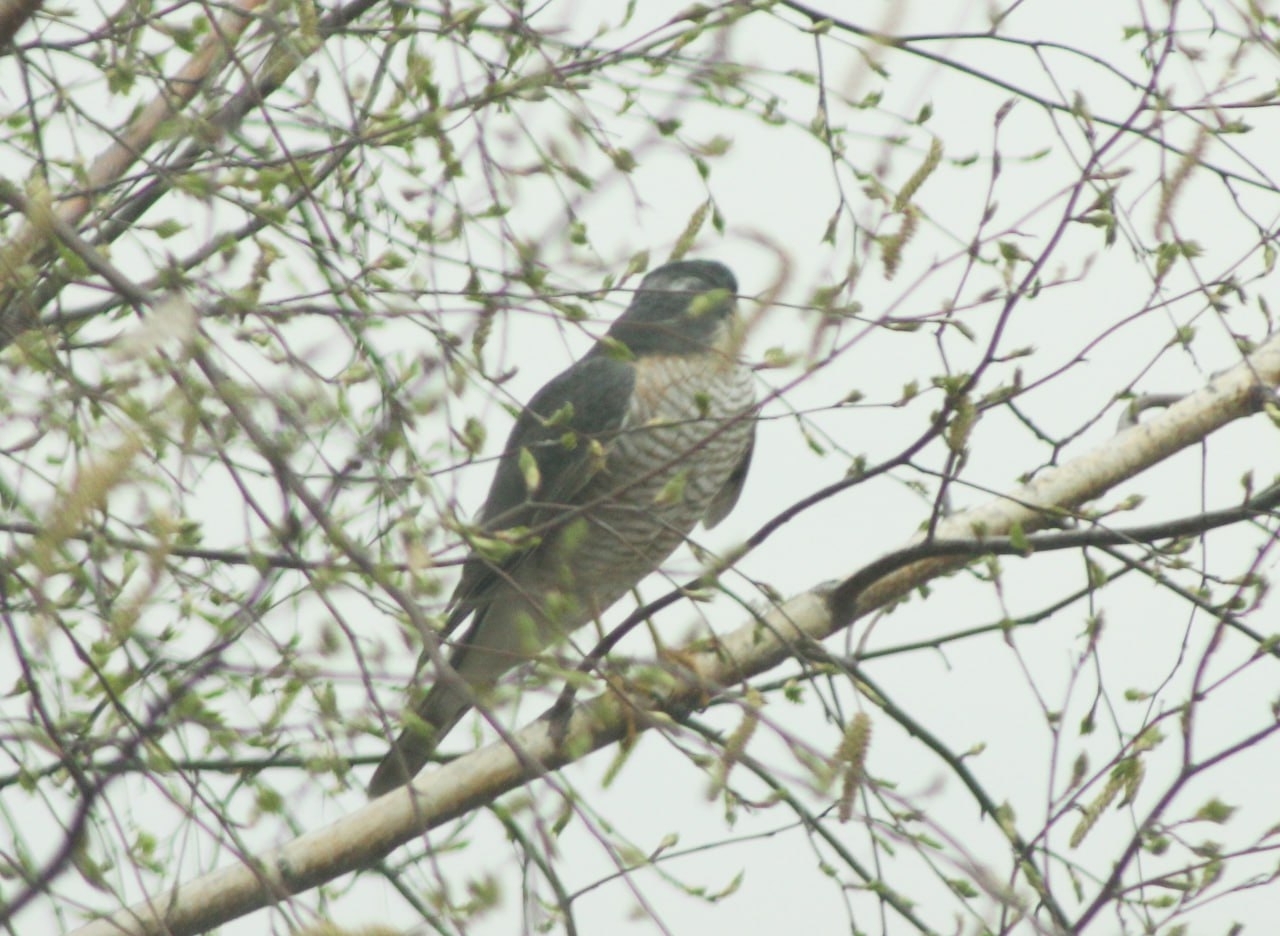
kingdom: Animalia
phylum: Chordata
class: Aves
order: Accipitriformes
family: Accipitridae
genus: Accipiter
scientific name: Accipiter nisus
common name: Eurasian sparrowhawk
